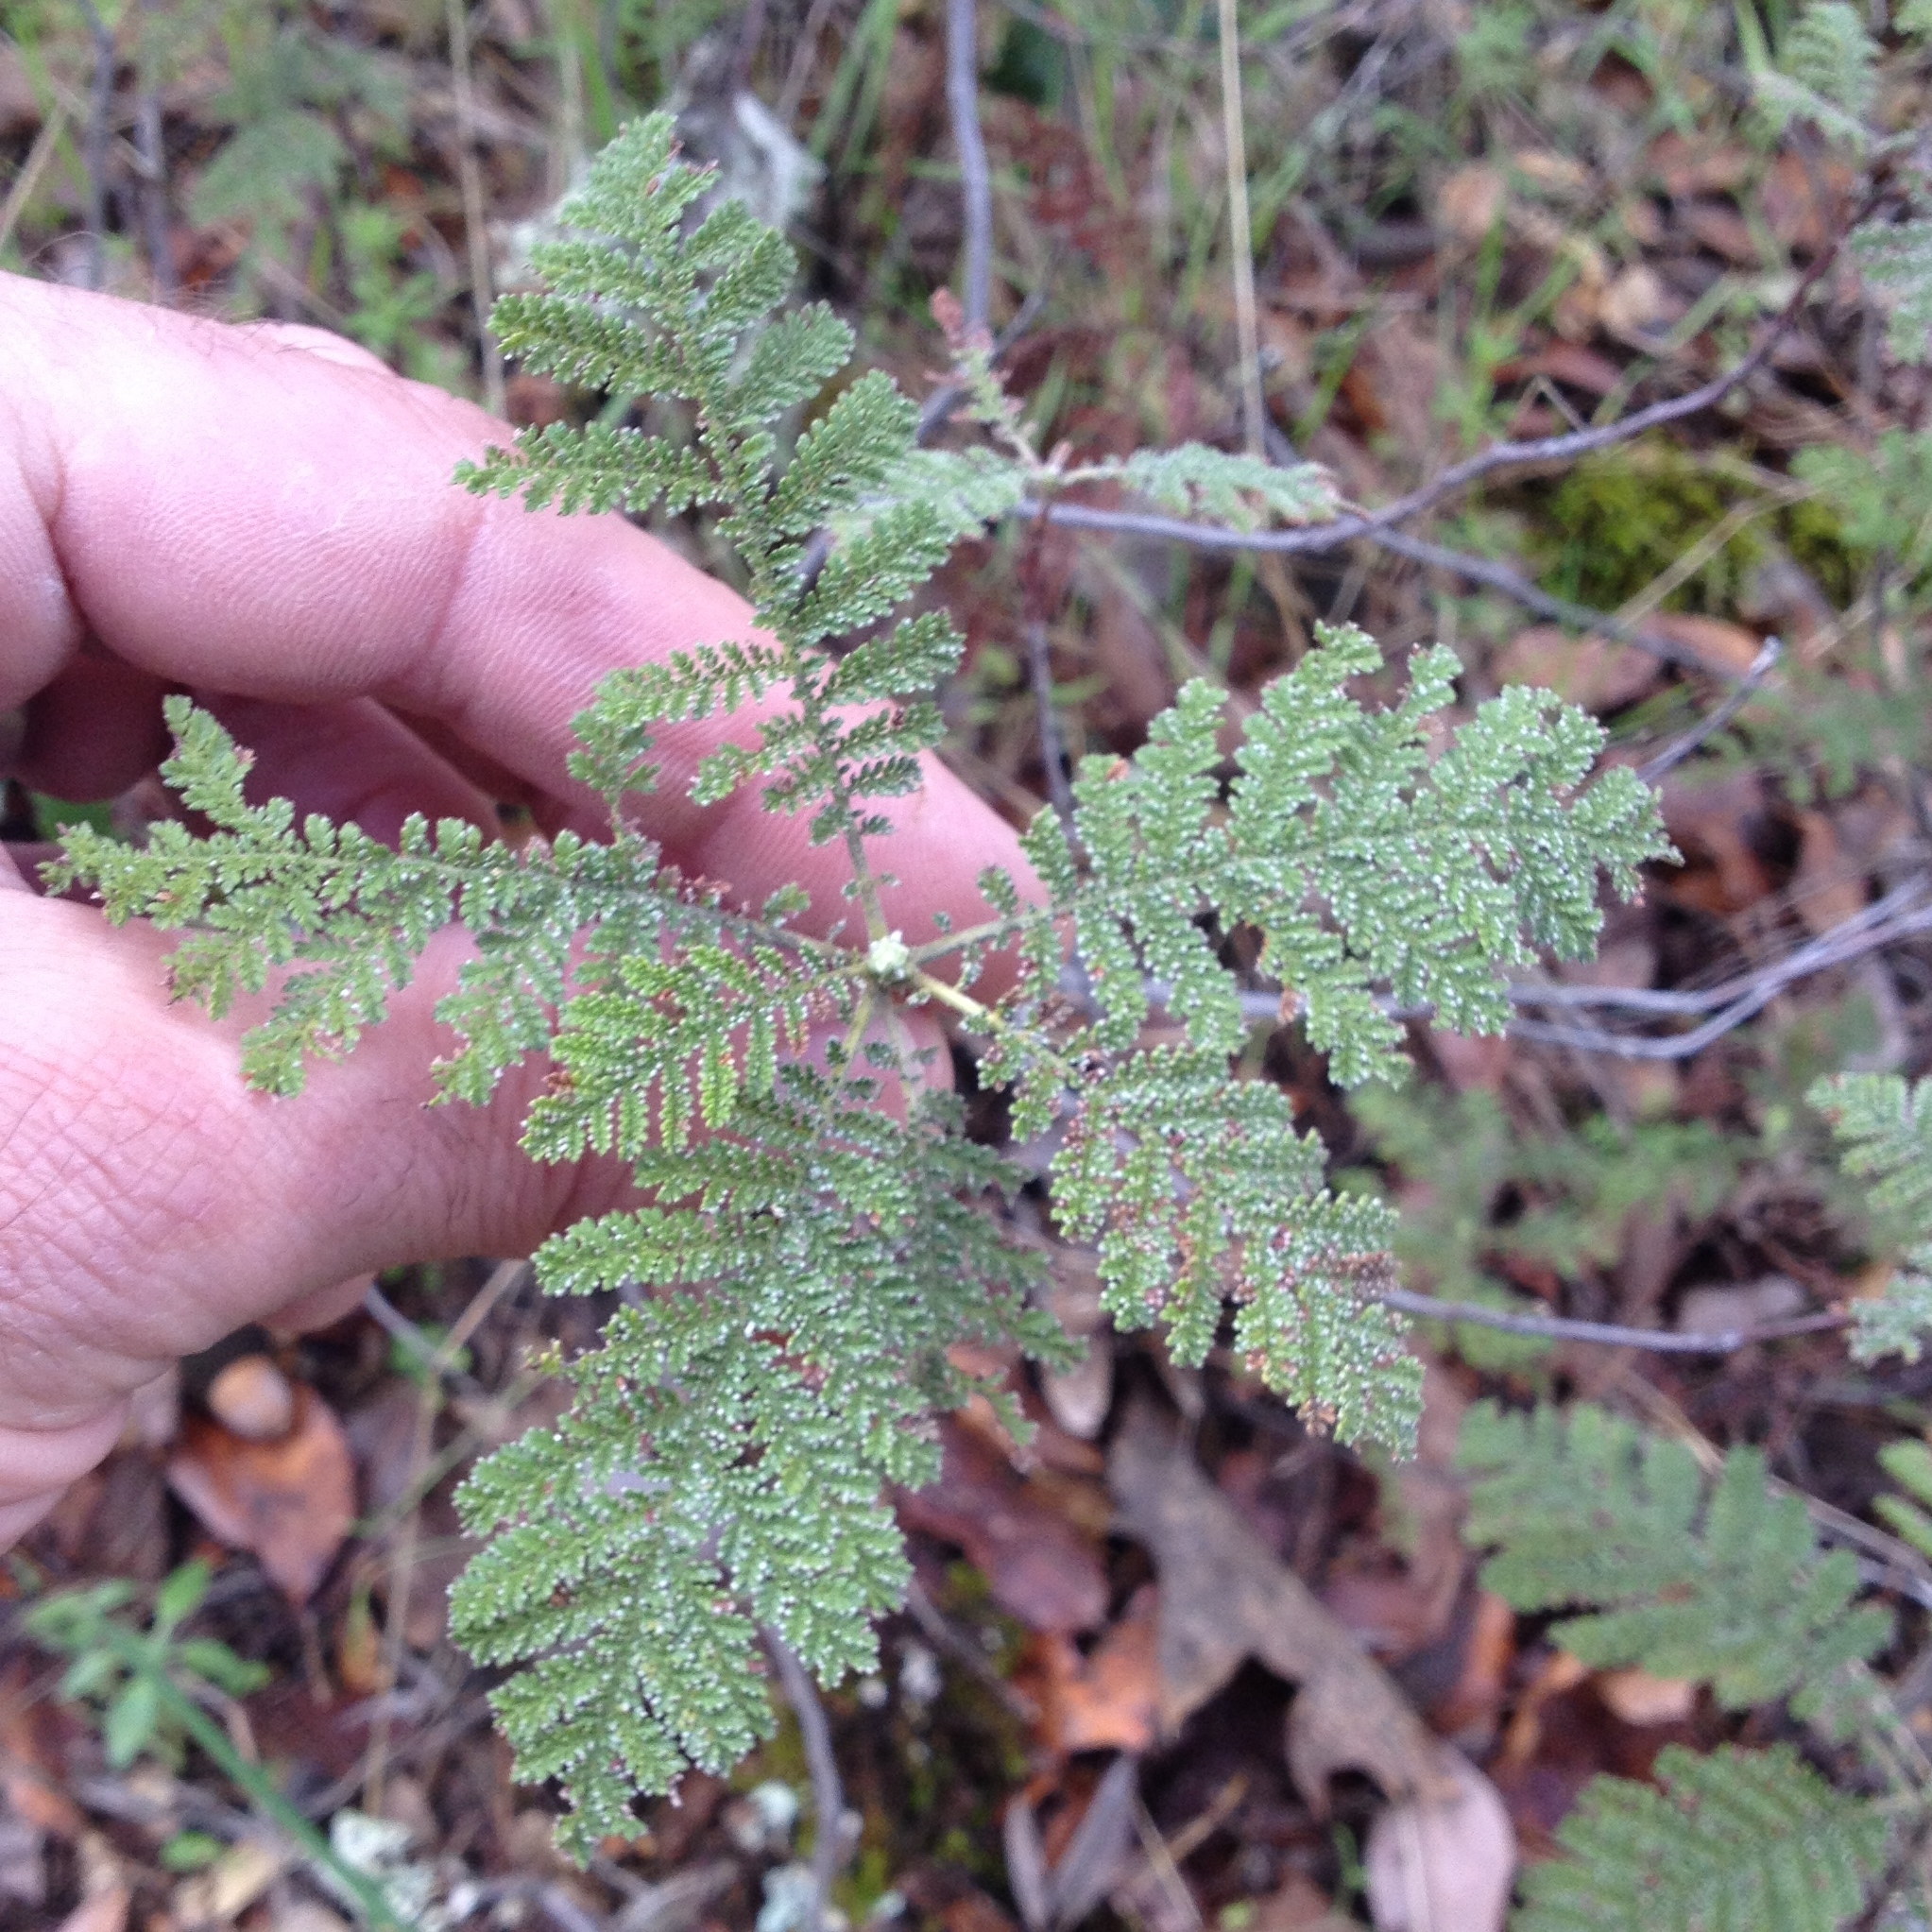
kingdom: Plantae
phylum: Tracheophyta
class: Magnoliopsida
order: Rosales
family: Rosaceae
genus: Chamaebatia
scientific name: Chamaebatia foliolosa
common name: Mountain misery
